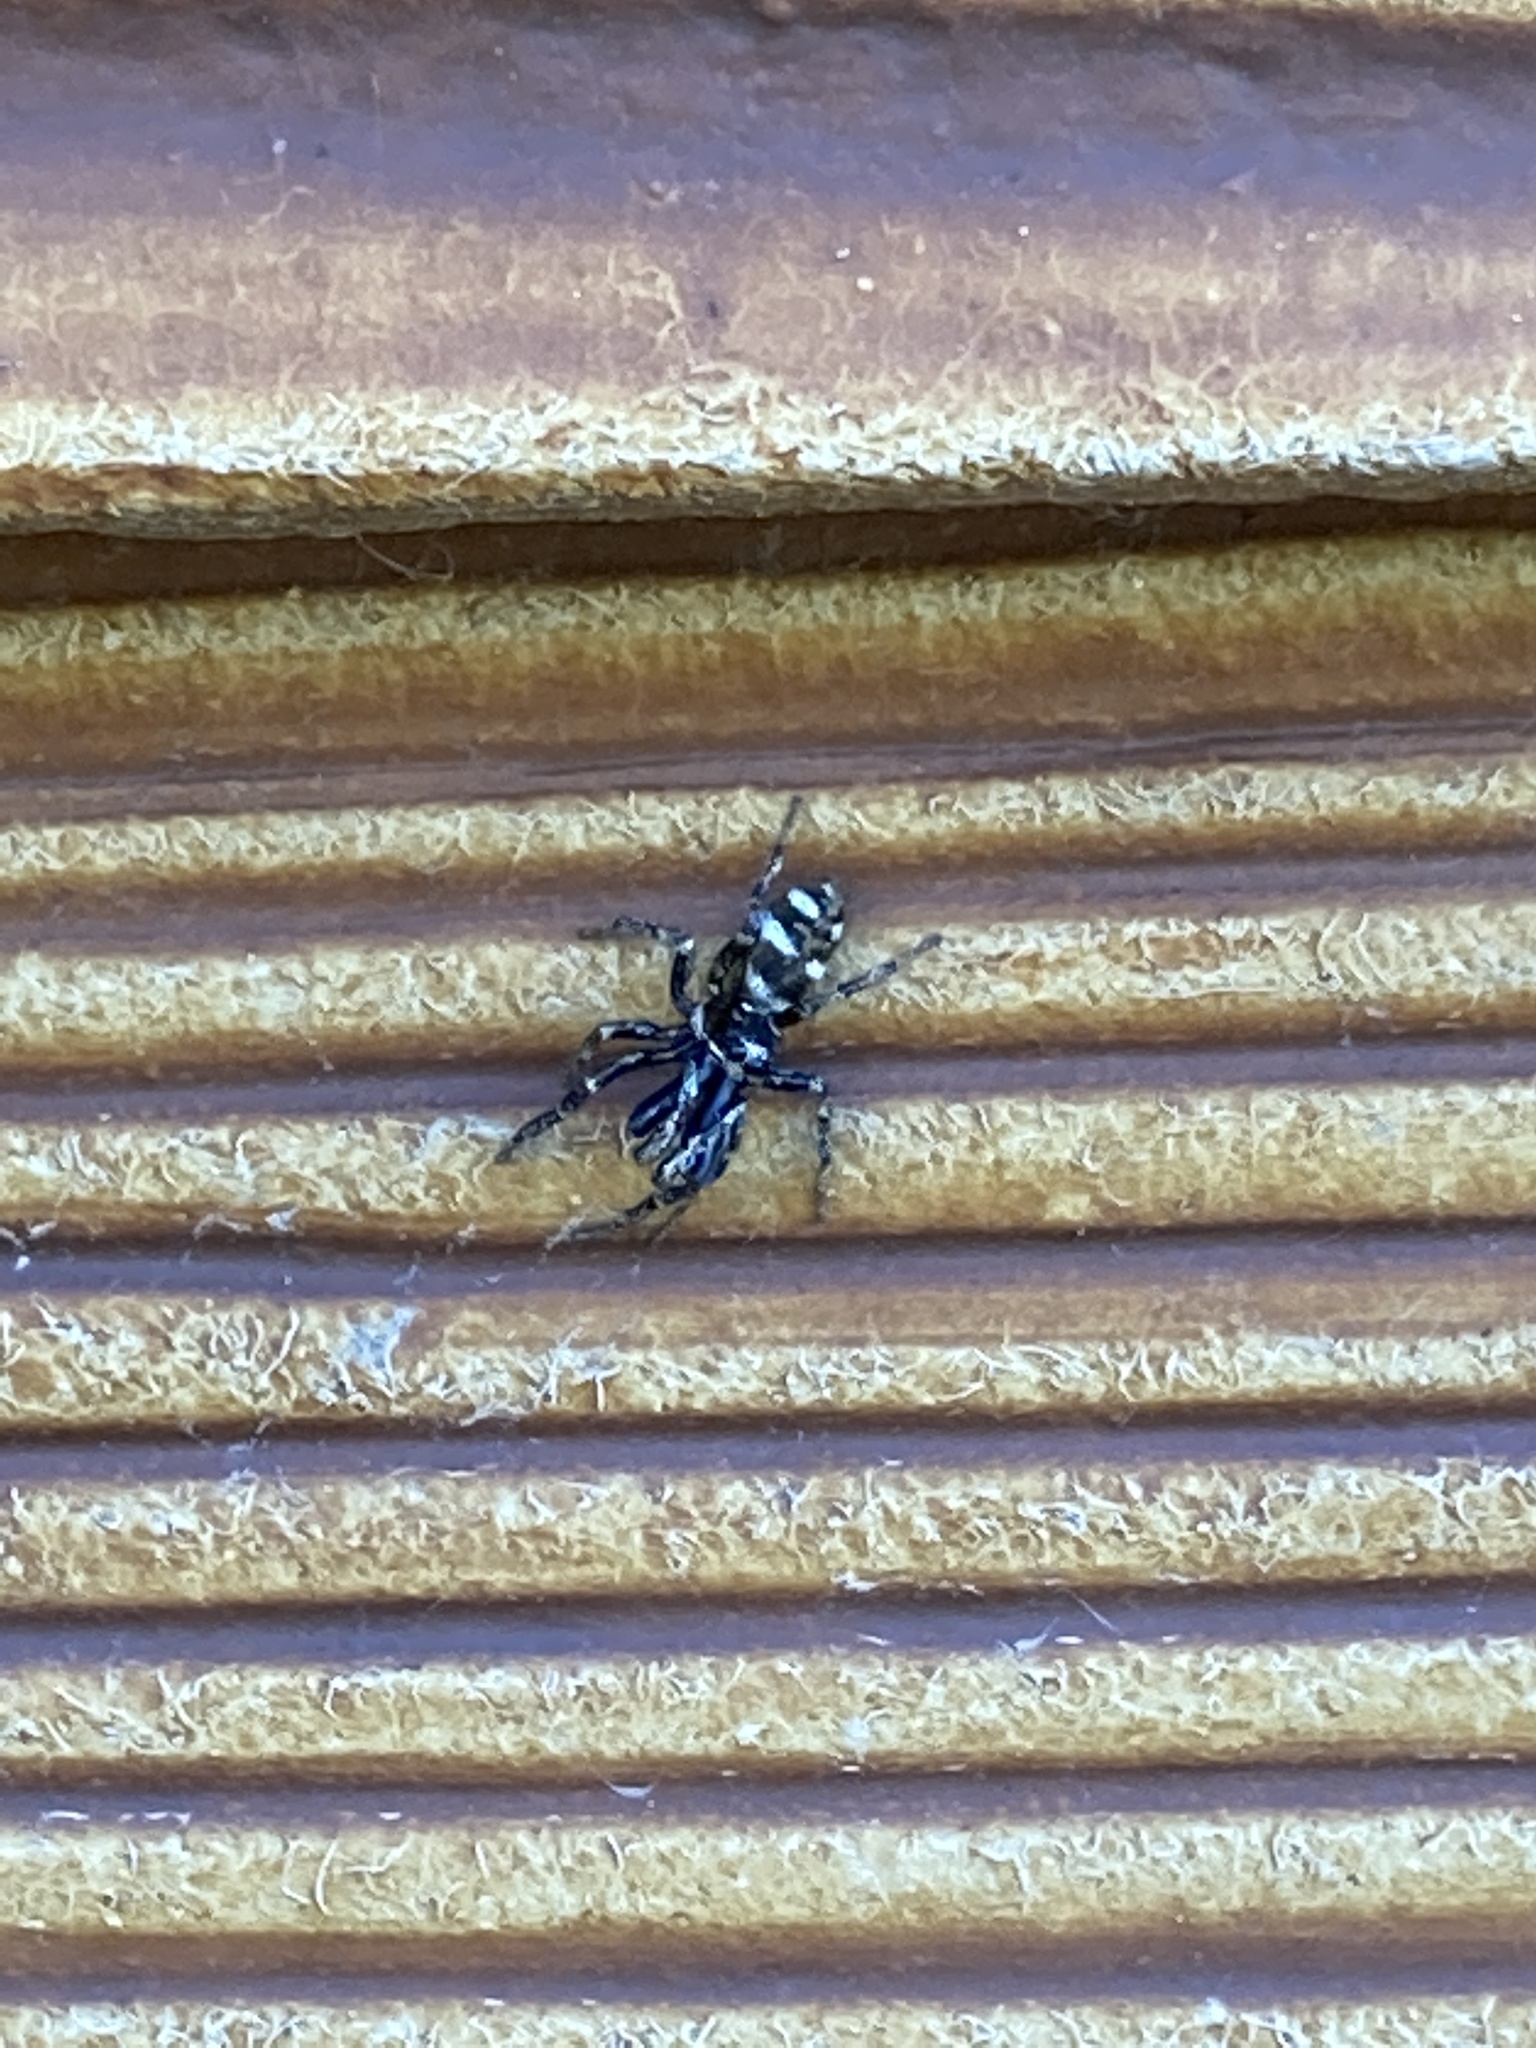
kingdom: Animalia
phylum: Arthropoda
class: Arachnida
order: Araneae
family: Salticidae
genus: Salticus
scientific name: Salticus scenicus
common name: Zebra jumper
